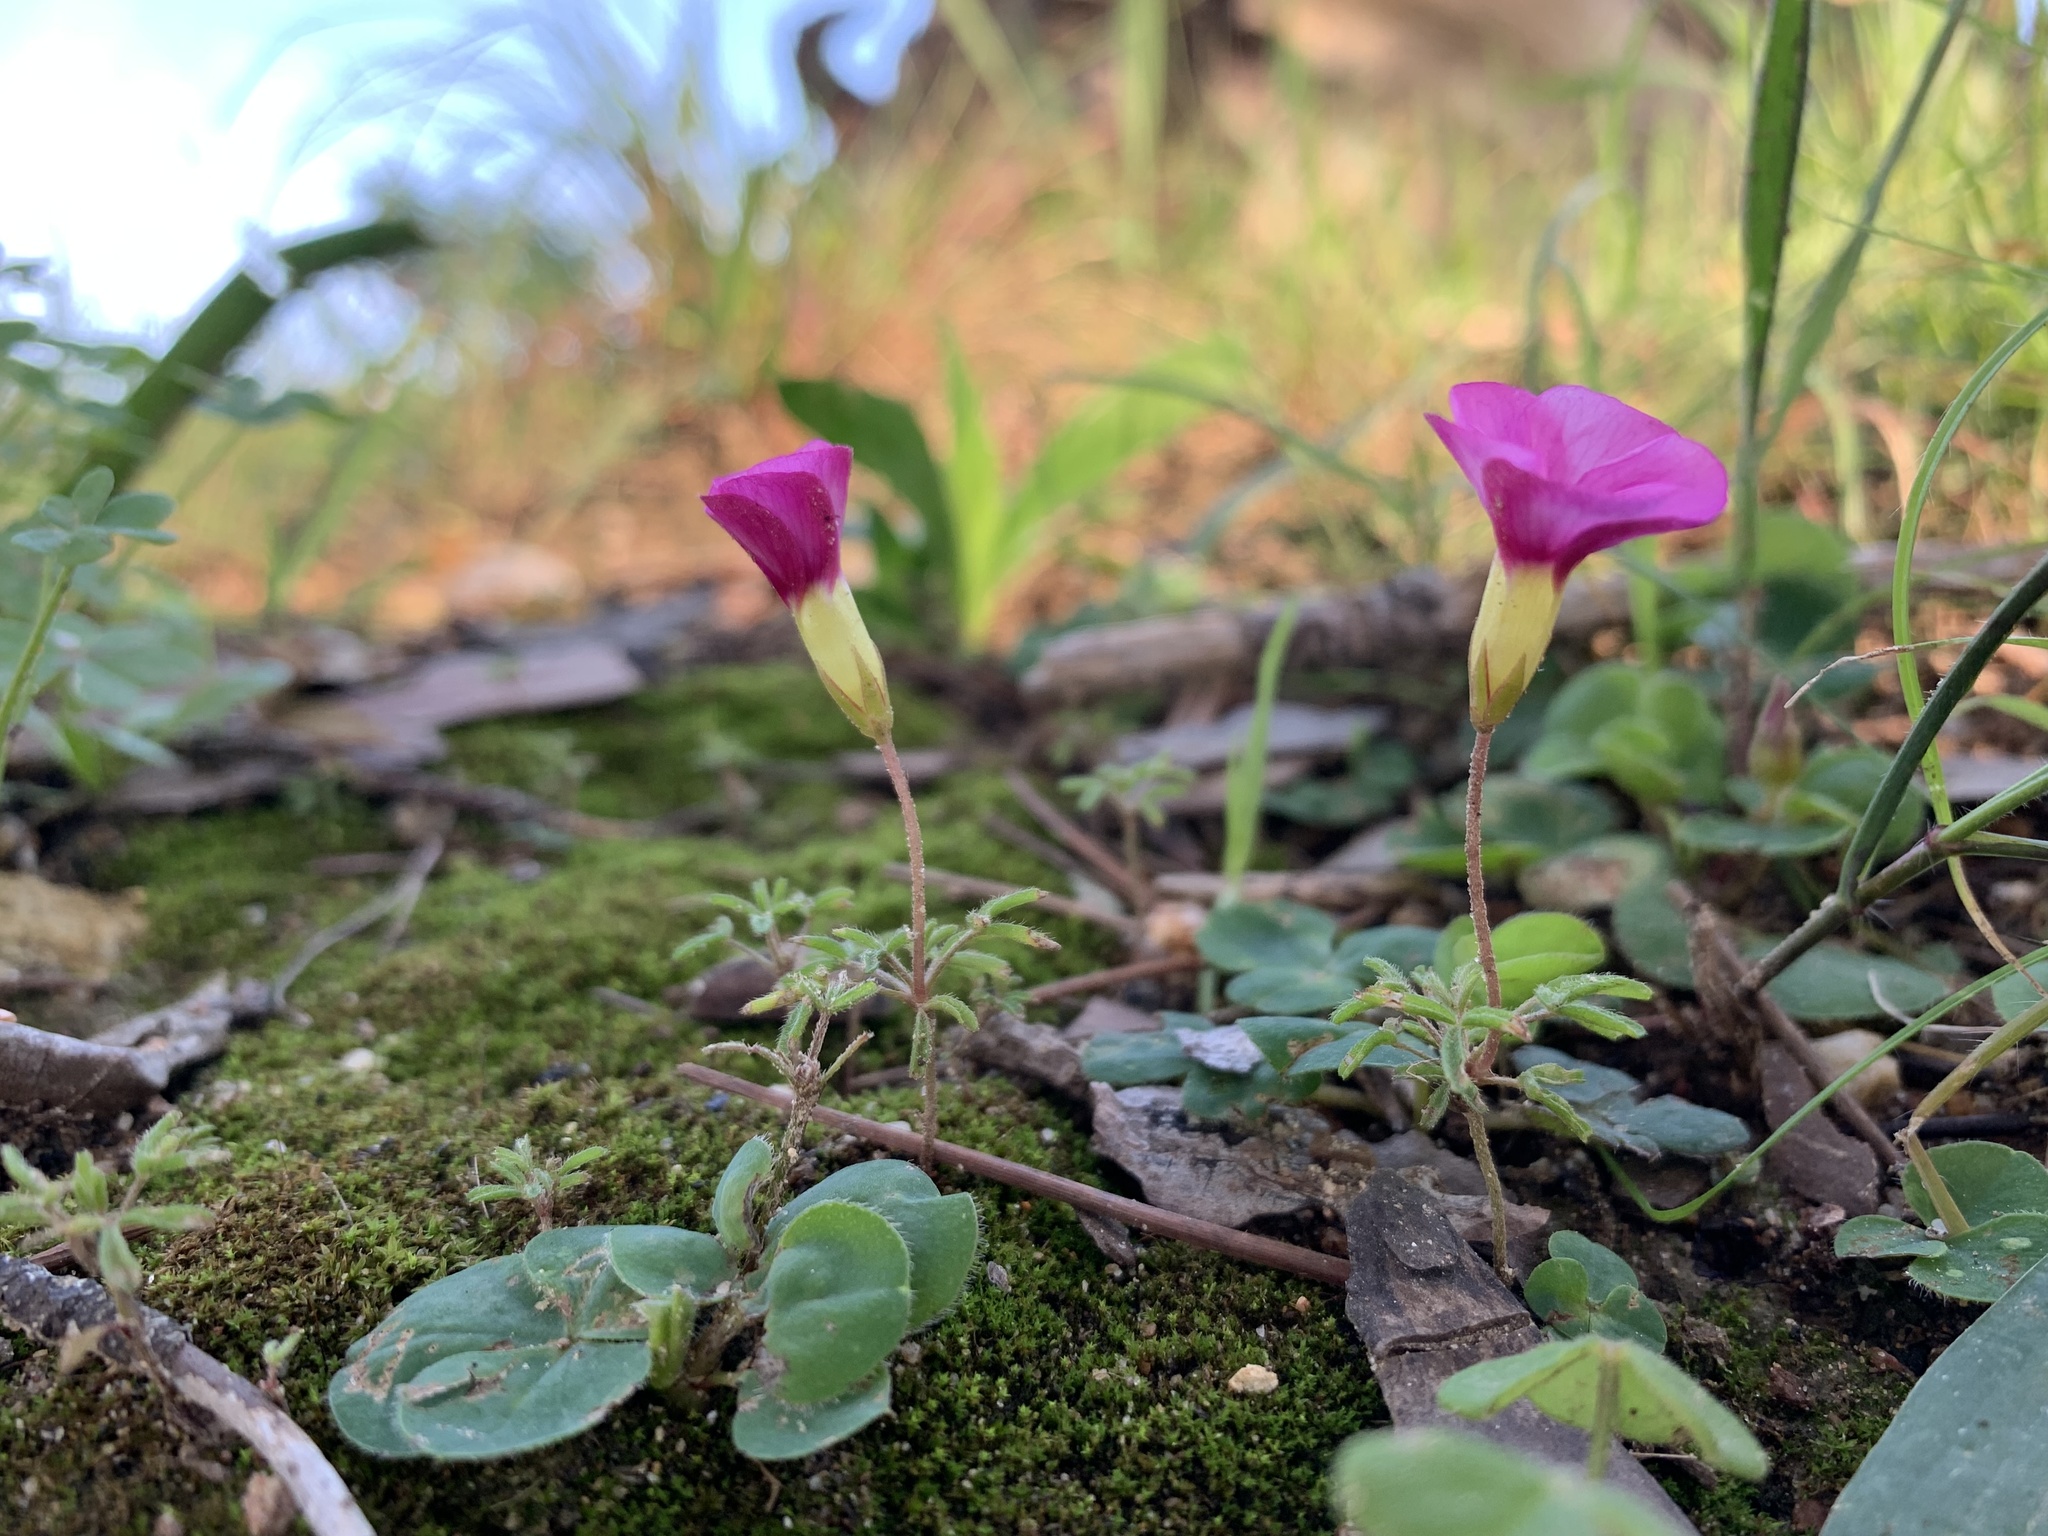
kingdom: Plantae
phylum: Tracheophyta
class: Magnoliopsida
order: Oxalidales
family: Oxalidaceae
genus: Oxalis
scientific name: Oxalis glabra
